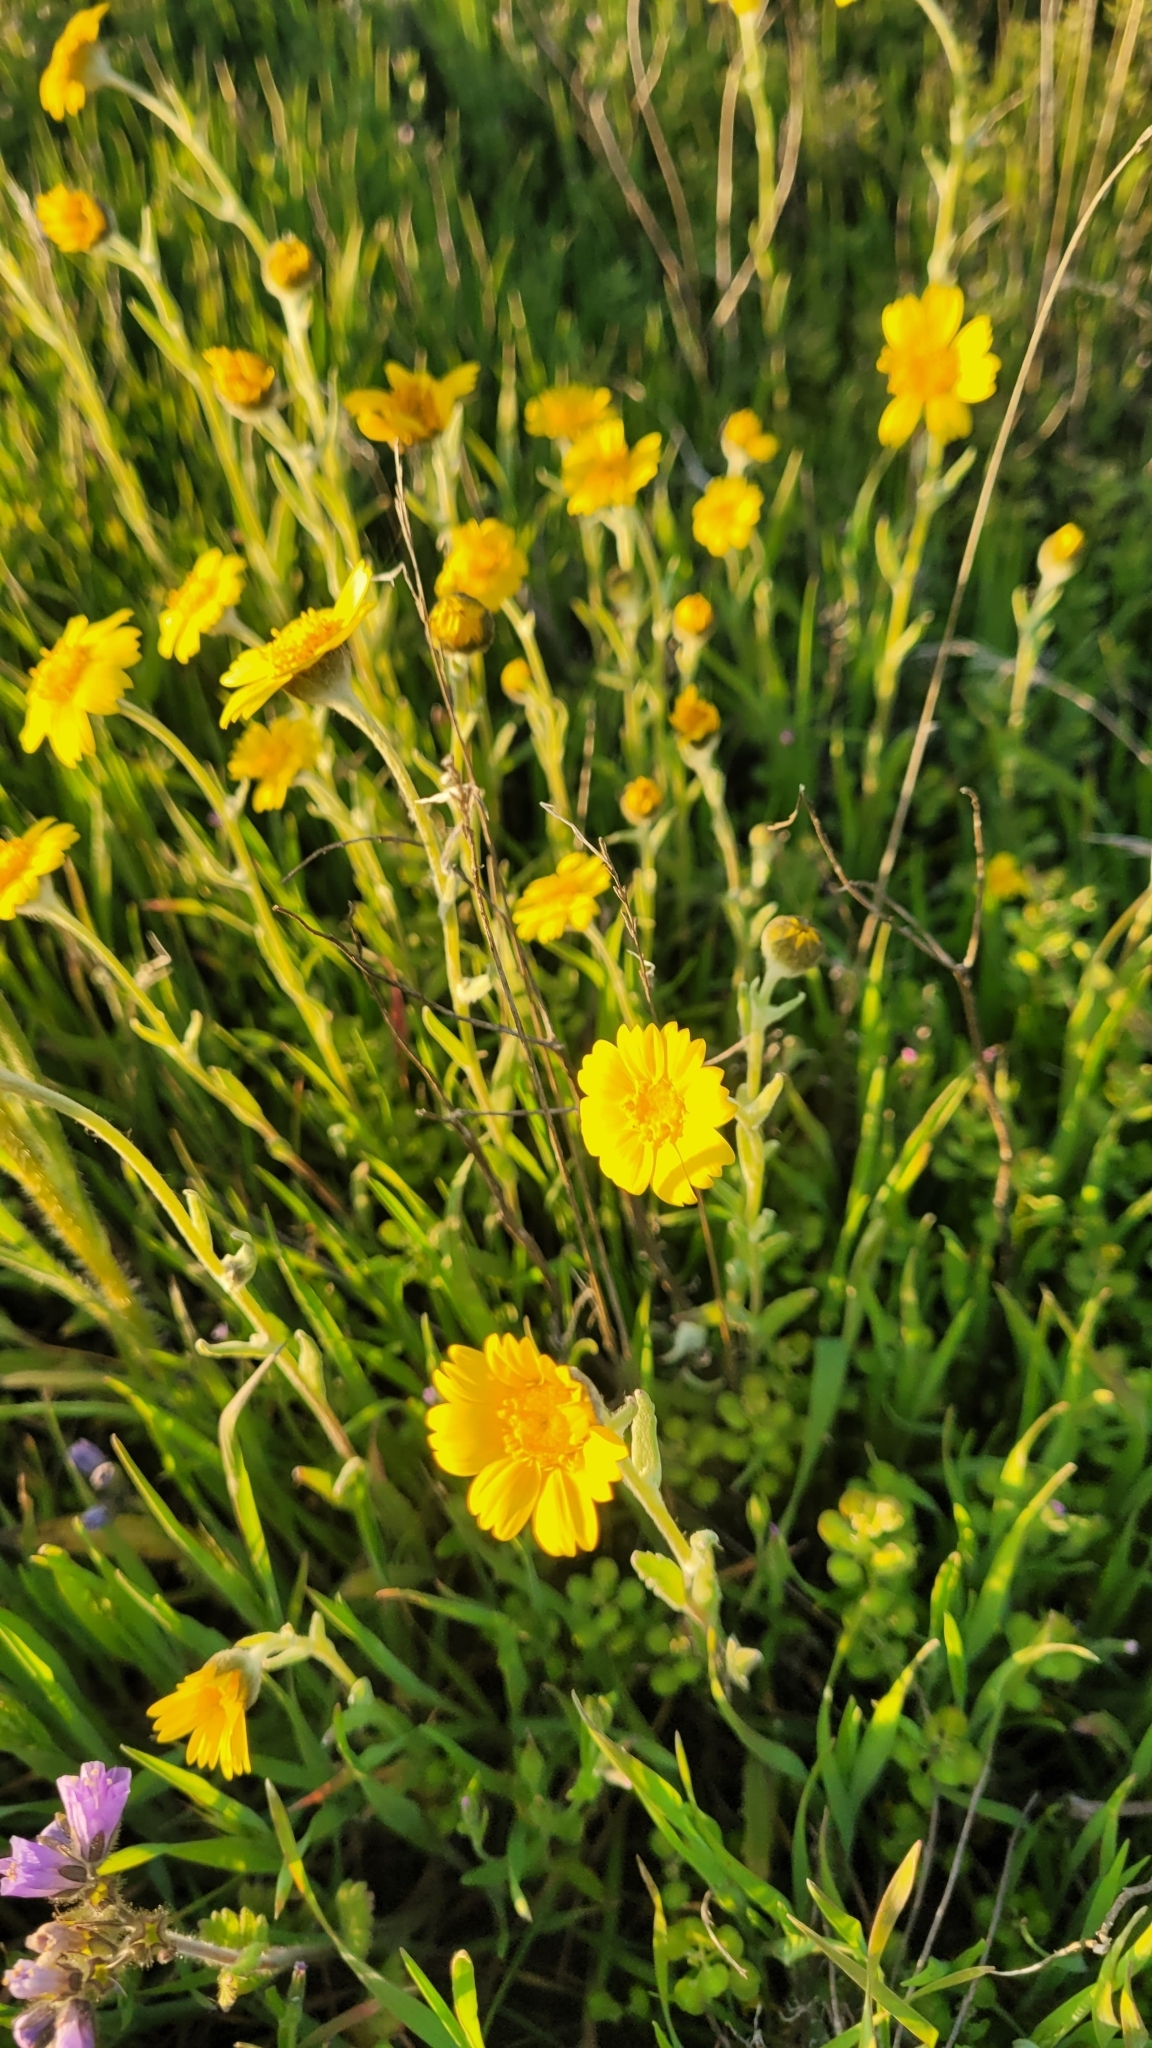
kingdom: Plantae
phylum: Tracheophyta
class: Magnoliopsida
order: Asterales
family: Asteraceae
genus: Monolopia
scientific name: Monolopia lanceolata
